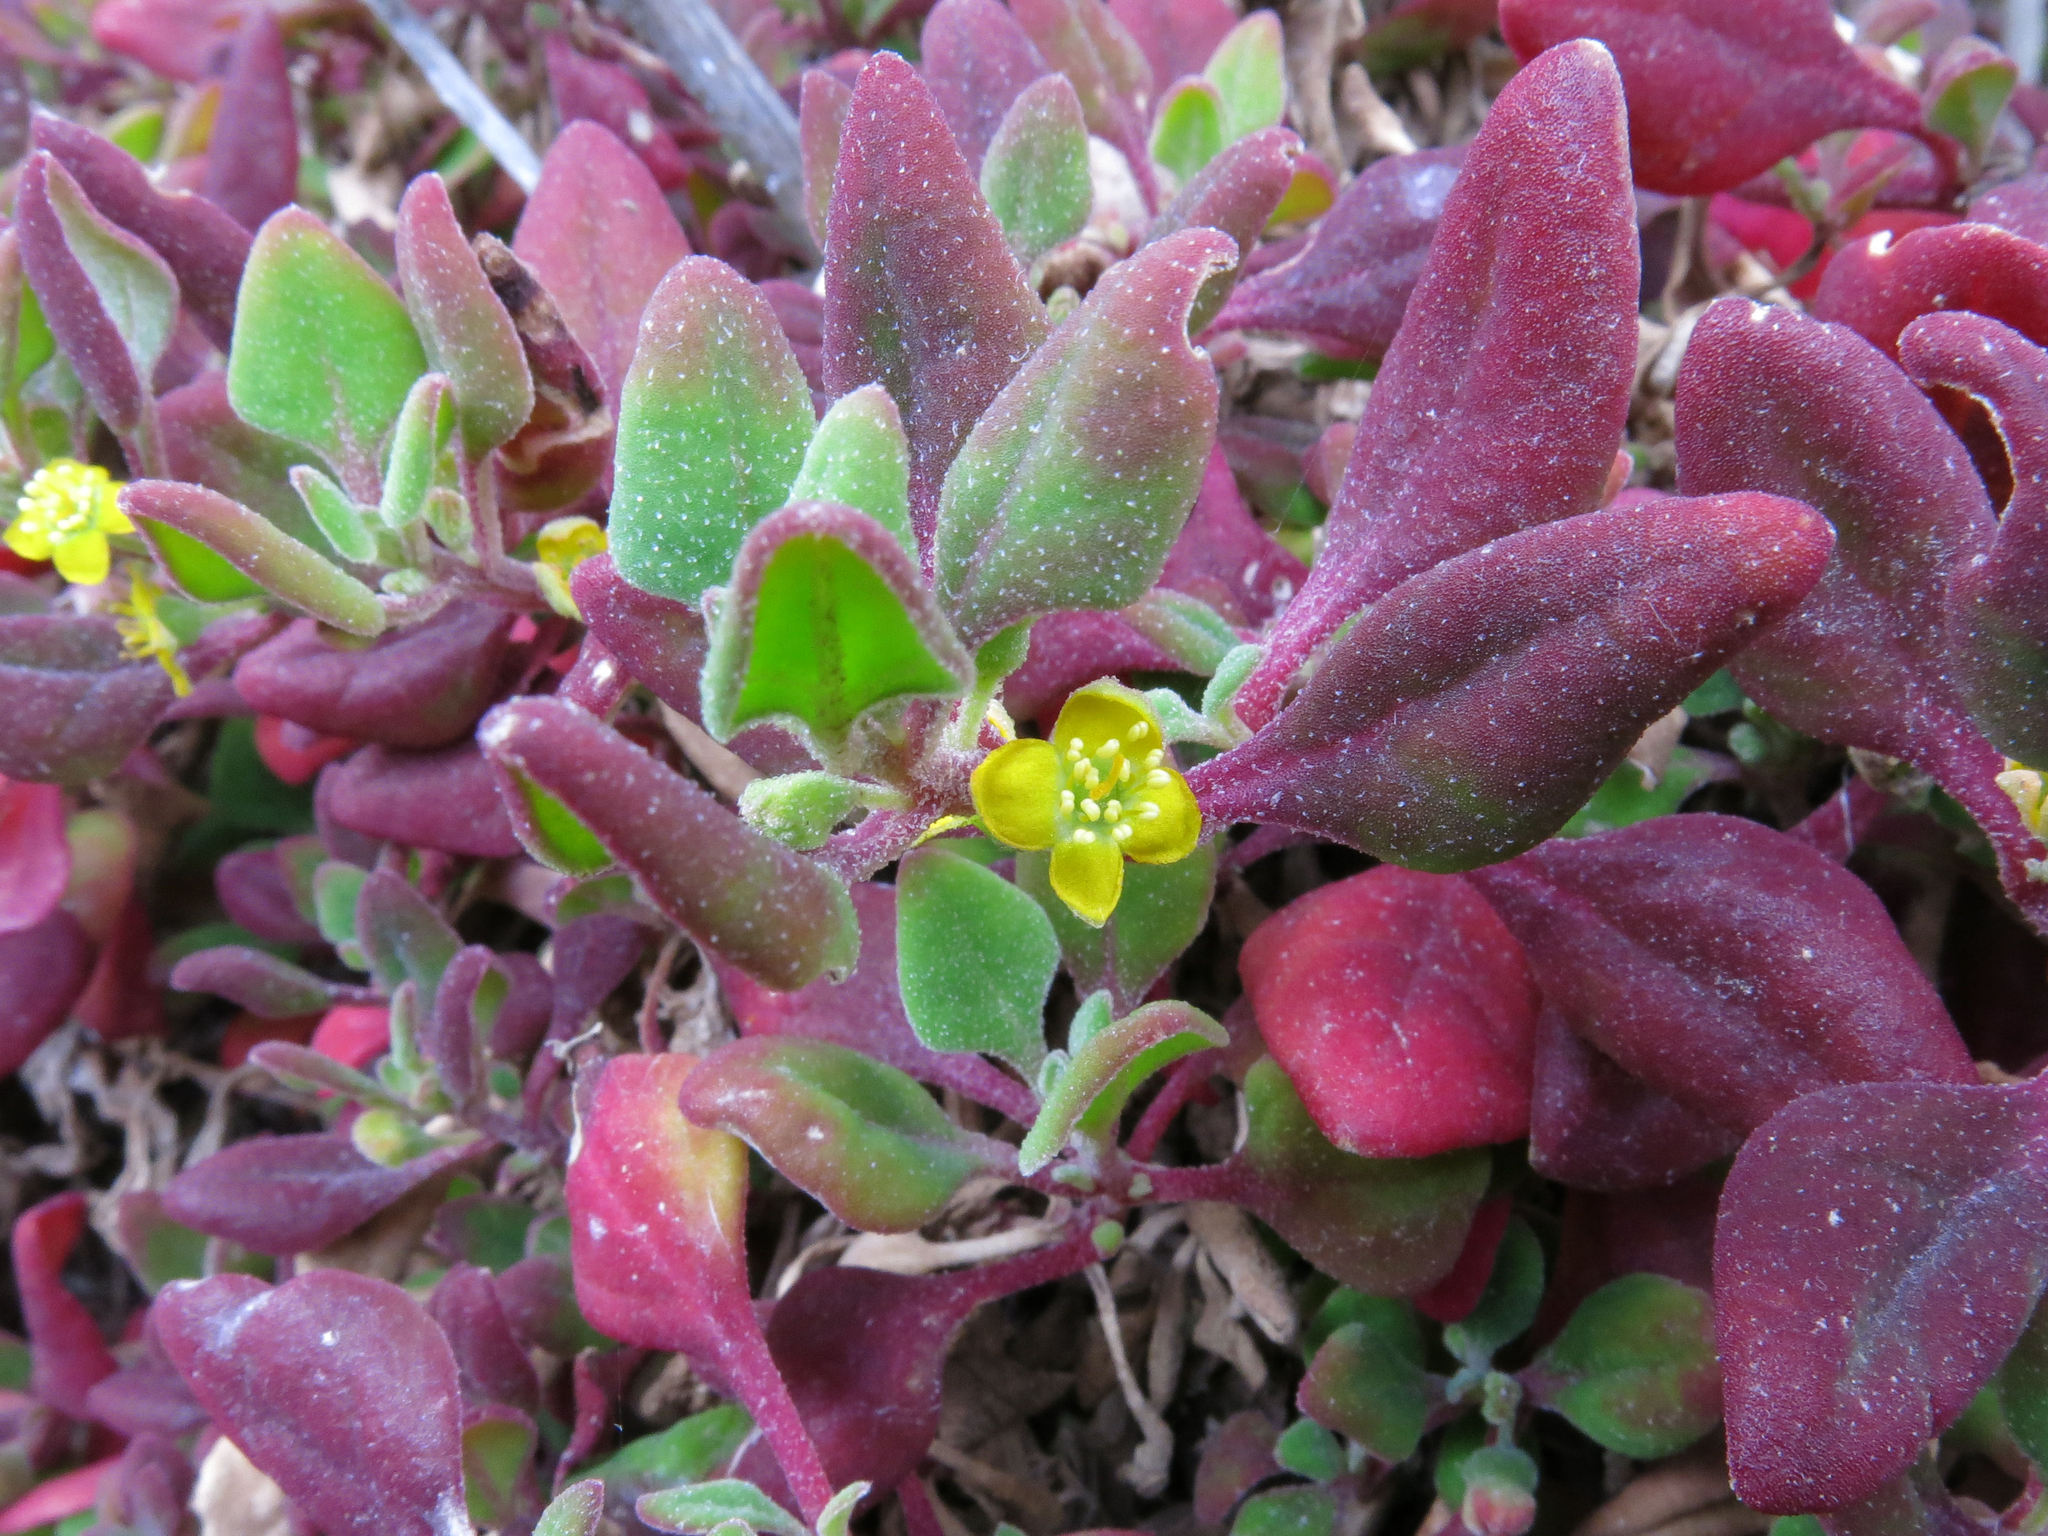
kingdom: Plantae
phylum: Tracheophyta
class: Magnoliopsida
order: Caryophyllales
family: Aizoaceae
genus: Tetragonia
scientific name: Tetragonia implexicoma
